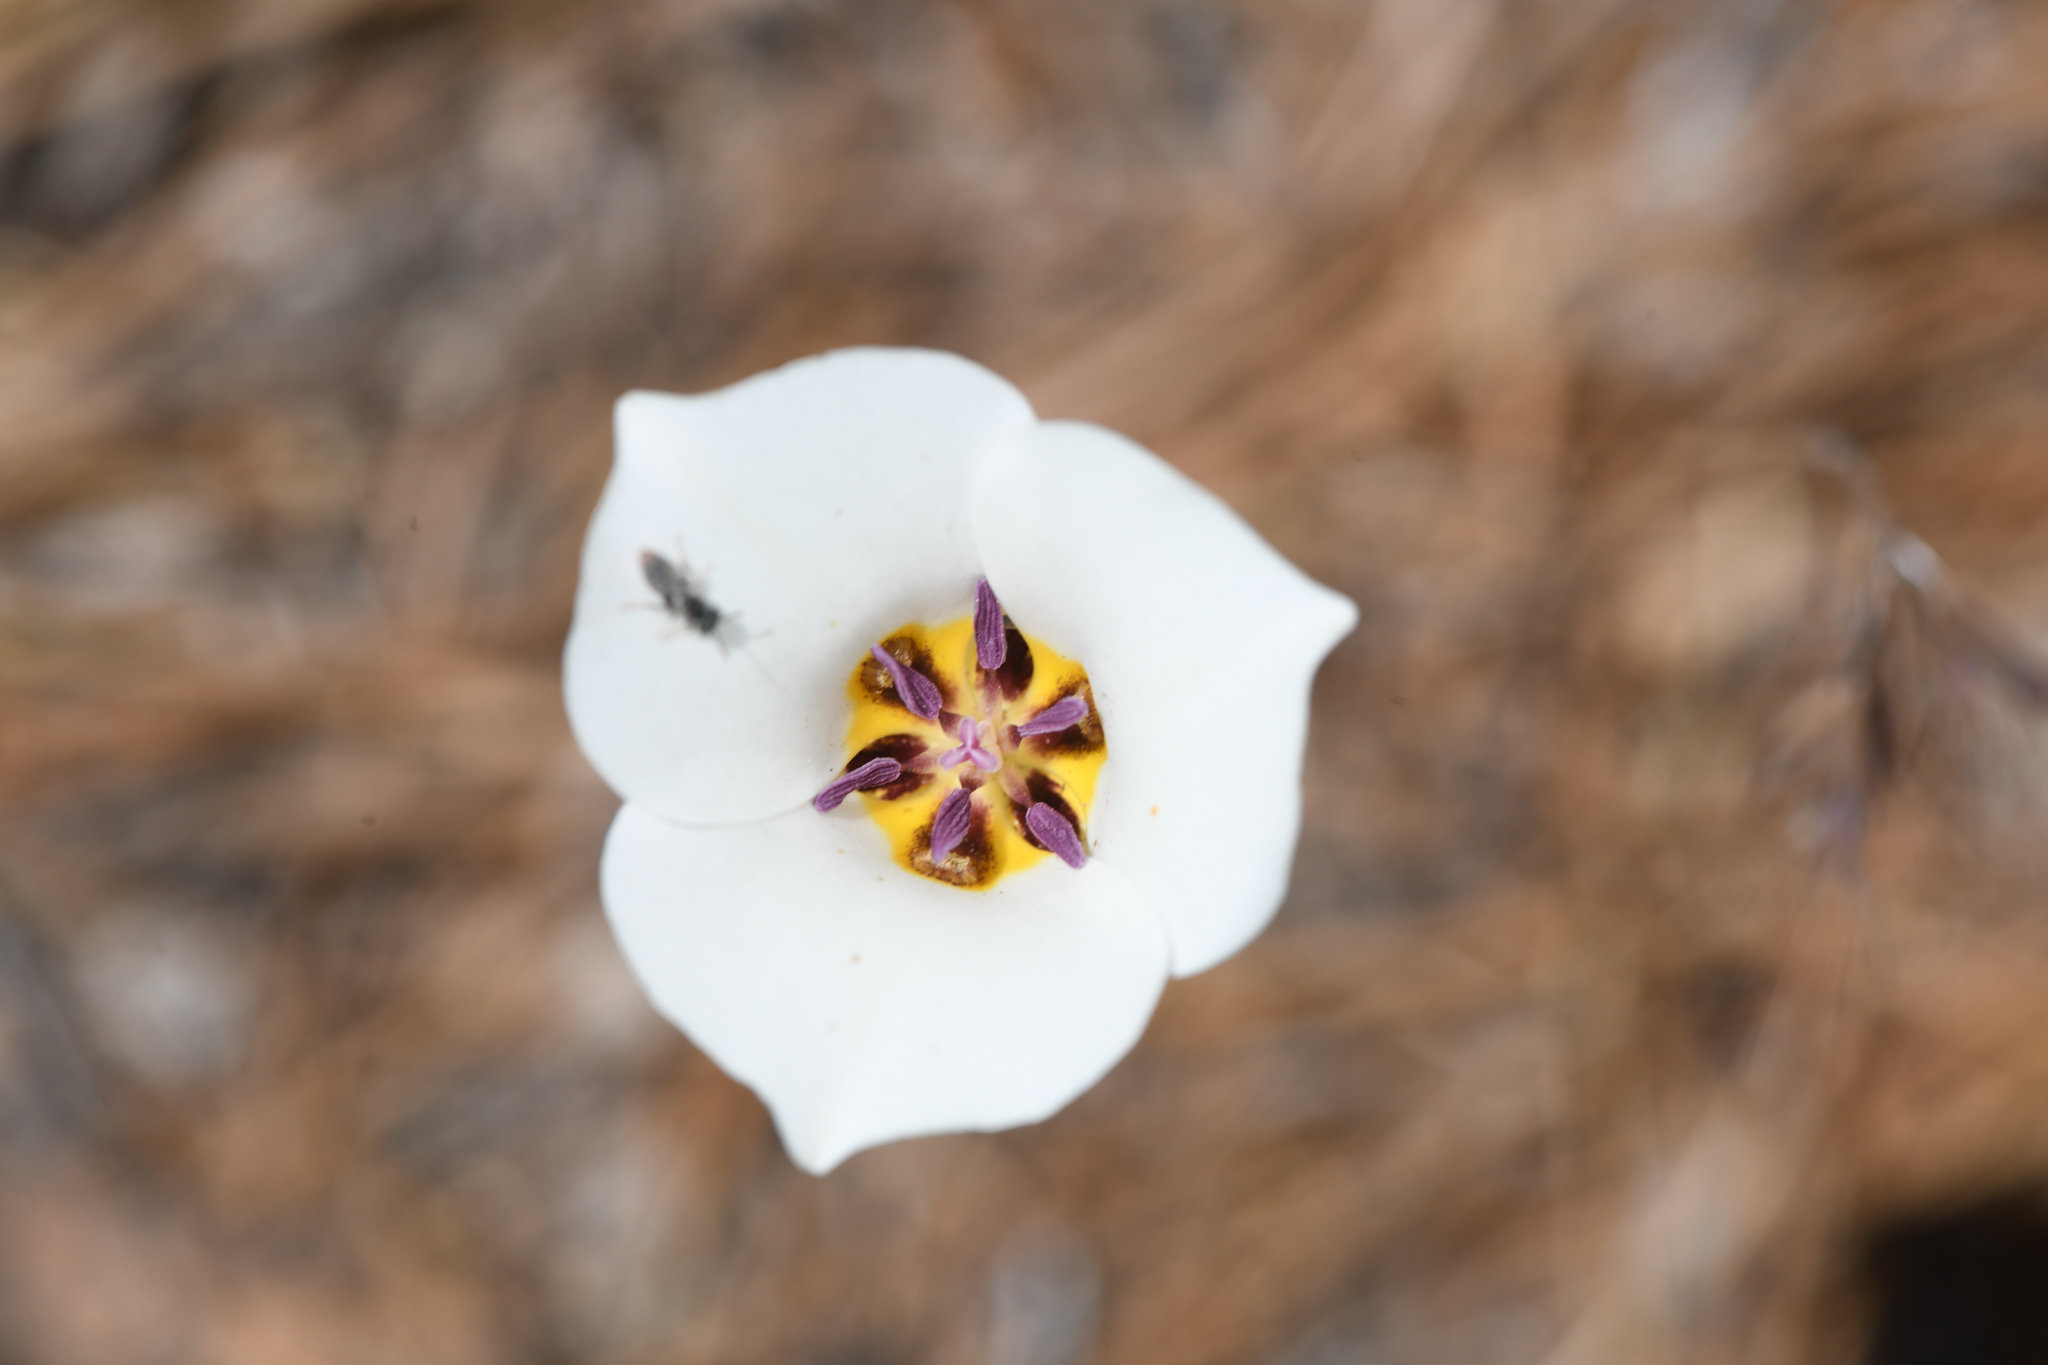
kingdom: Plantae
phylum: Tracheophyta
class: Liliopsida
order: Liliales
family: Liliaceae
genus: Calochortus
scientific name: Calochortus bruneaunis
